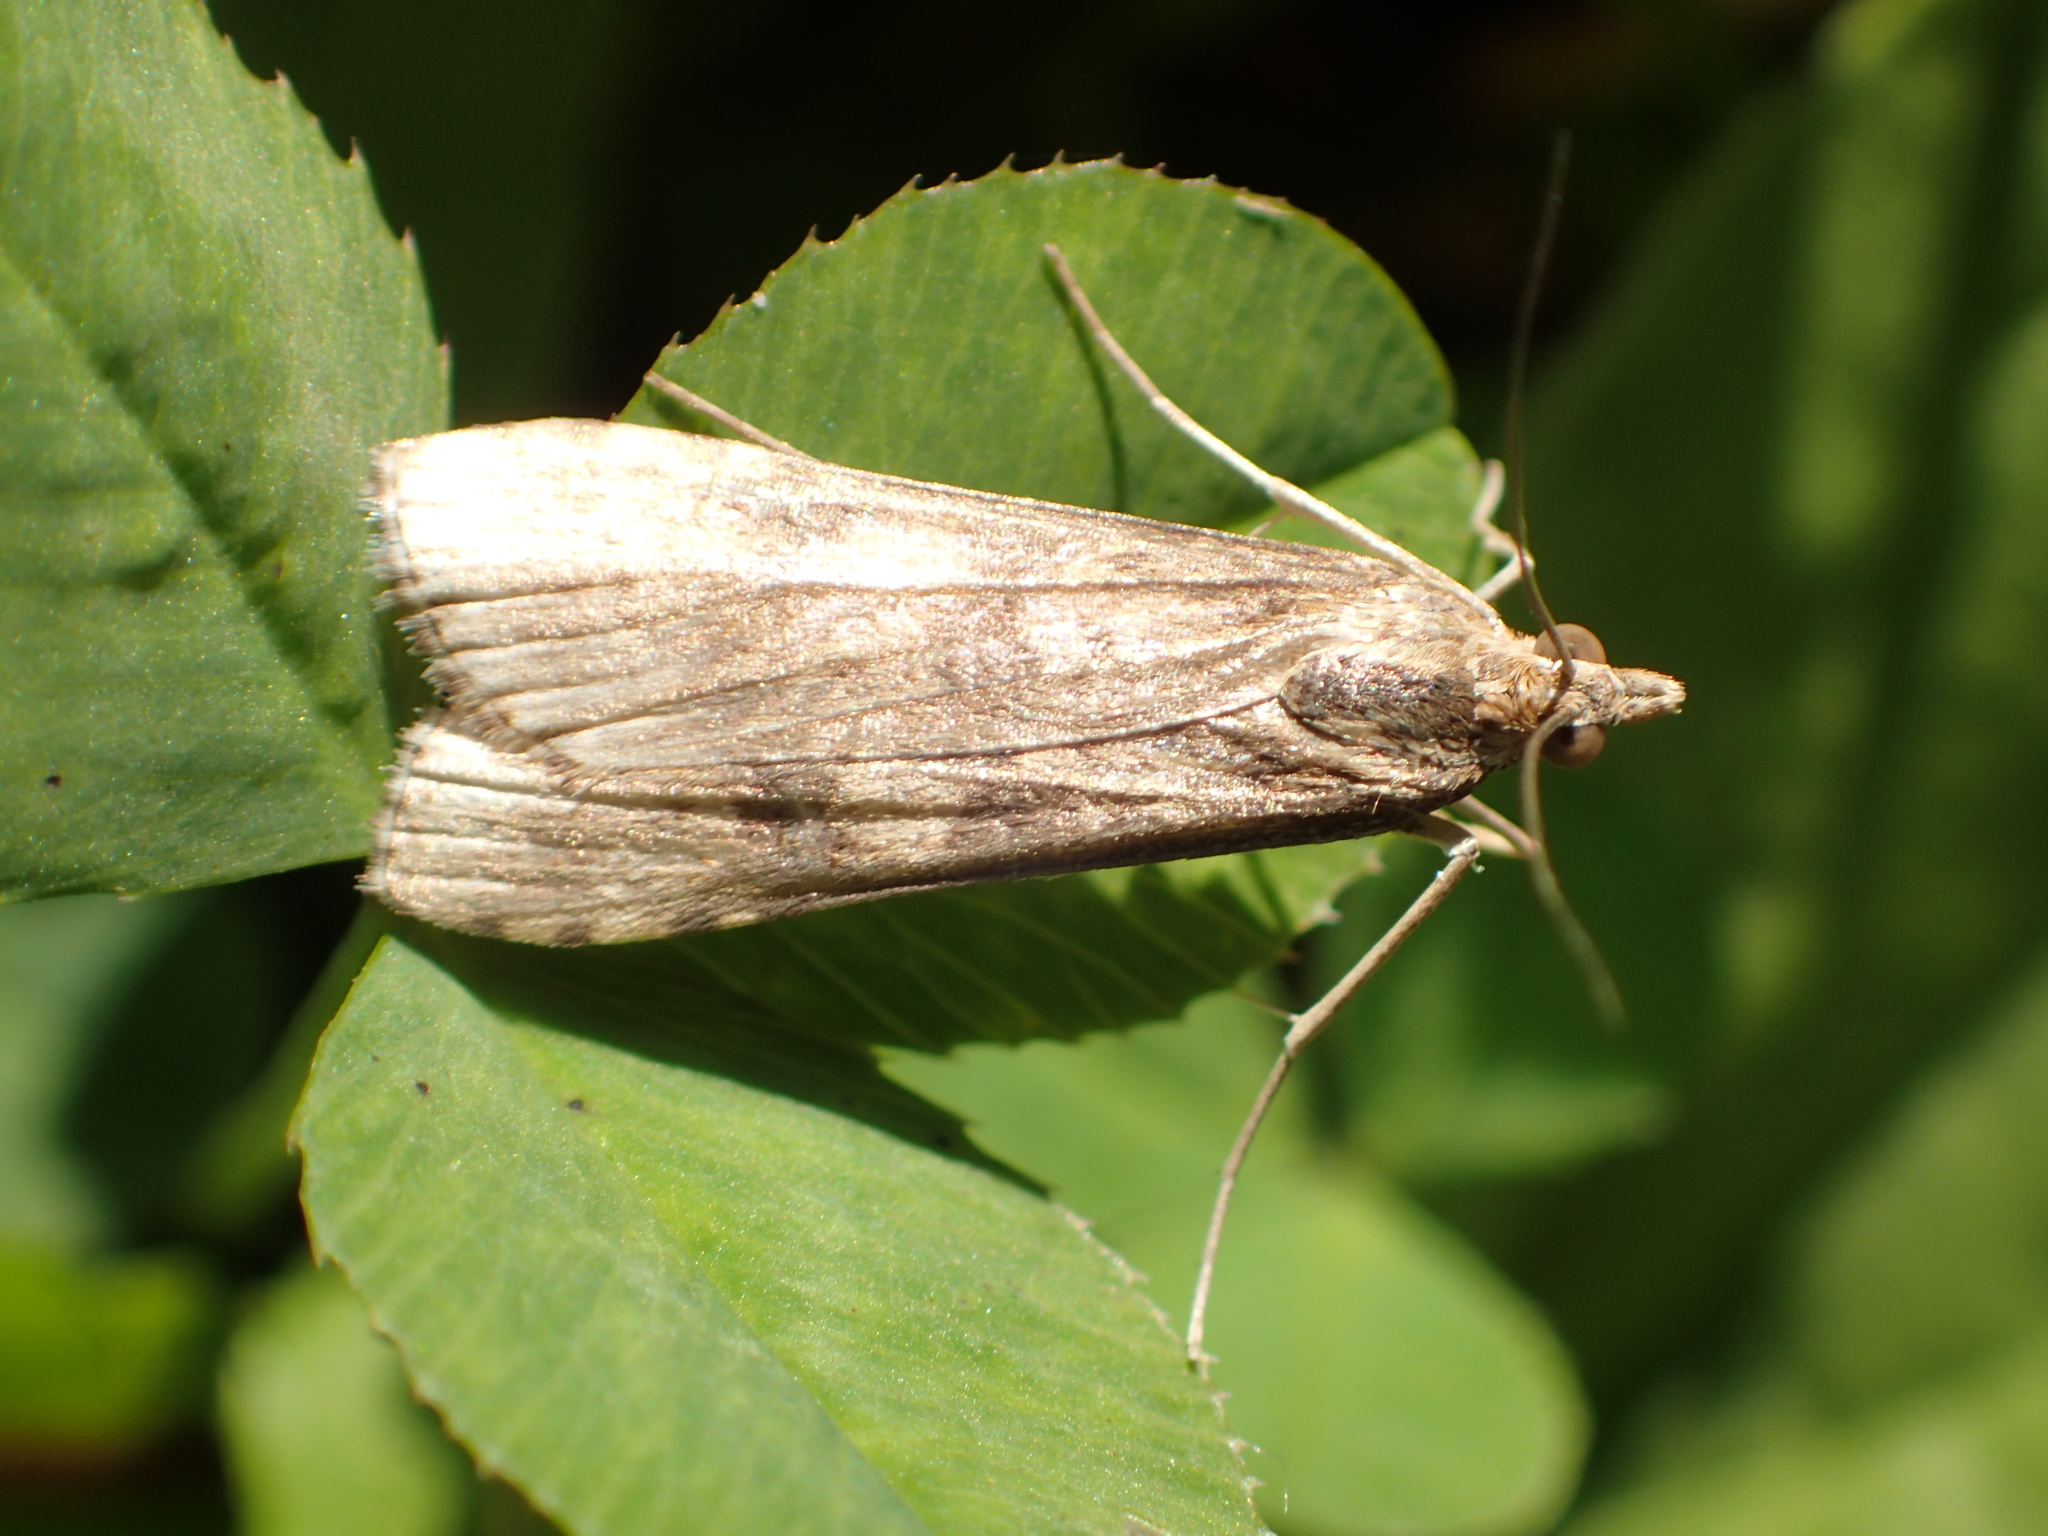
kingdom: Animalia
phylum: Arthropoda
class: Insecta
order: Lepidoptera
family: Crambidae
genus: Nomophila
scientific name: Nomophila nearctica
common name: American rush veneer
